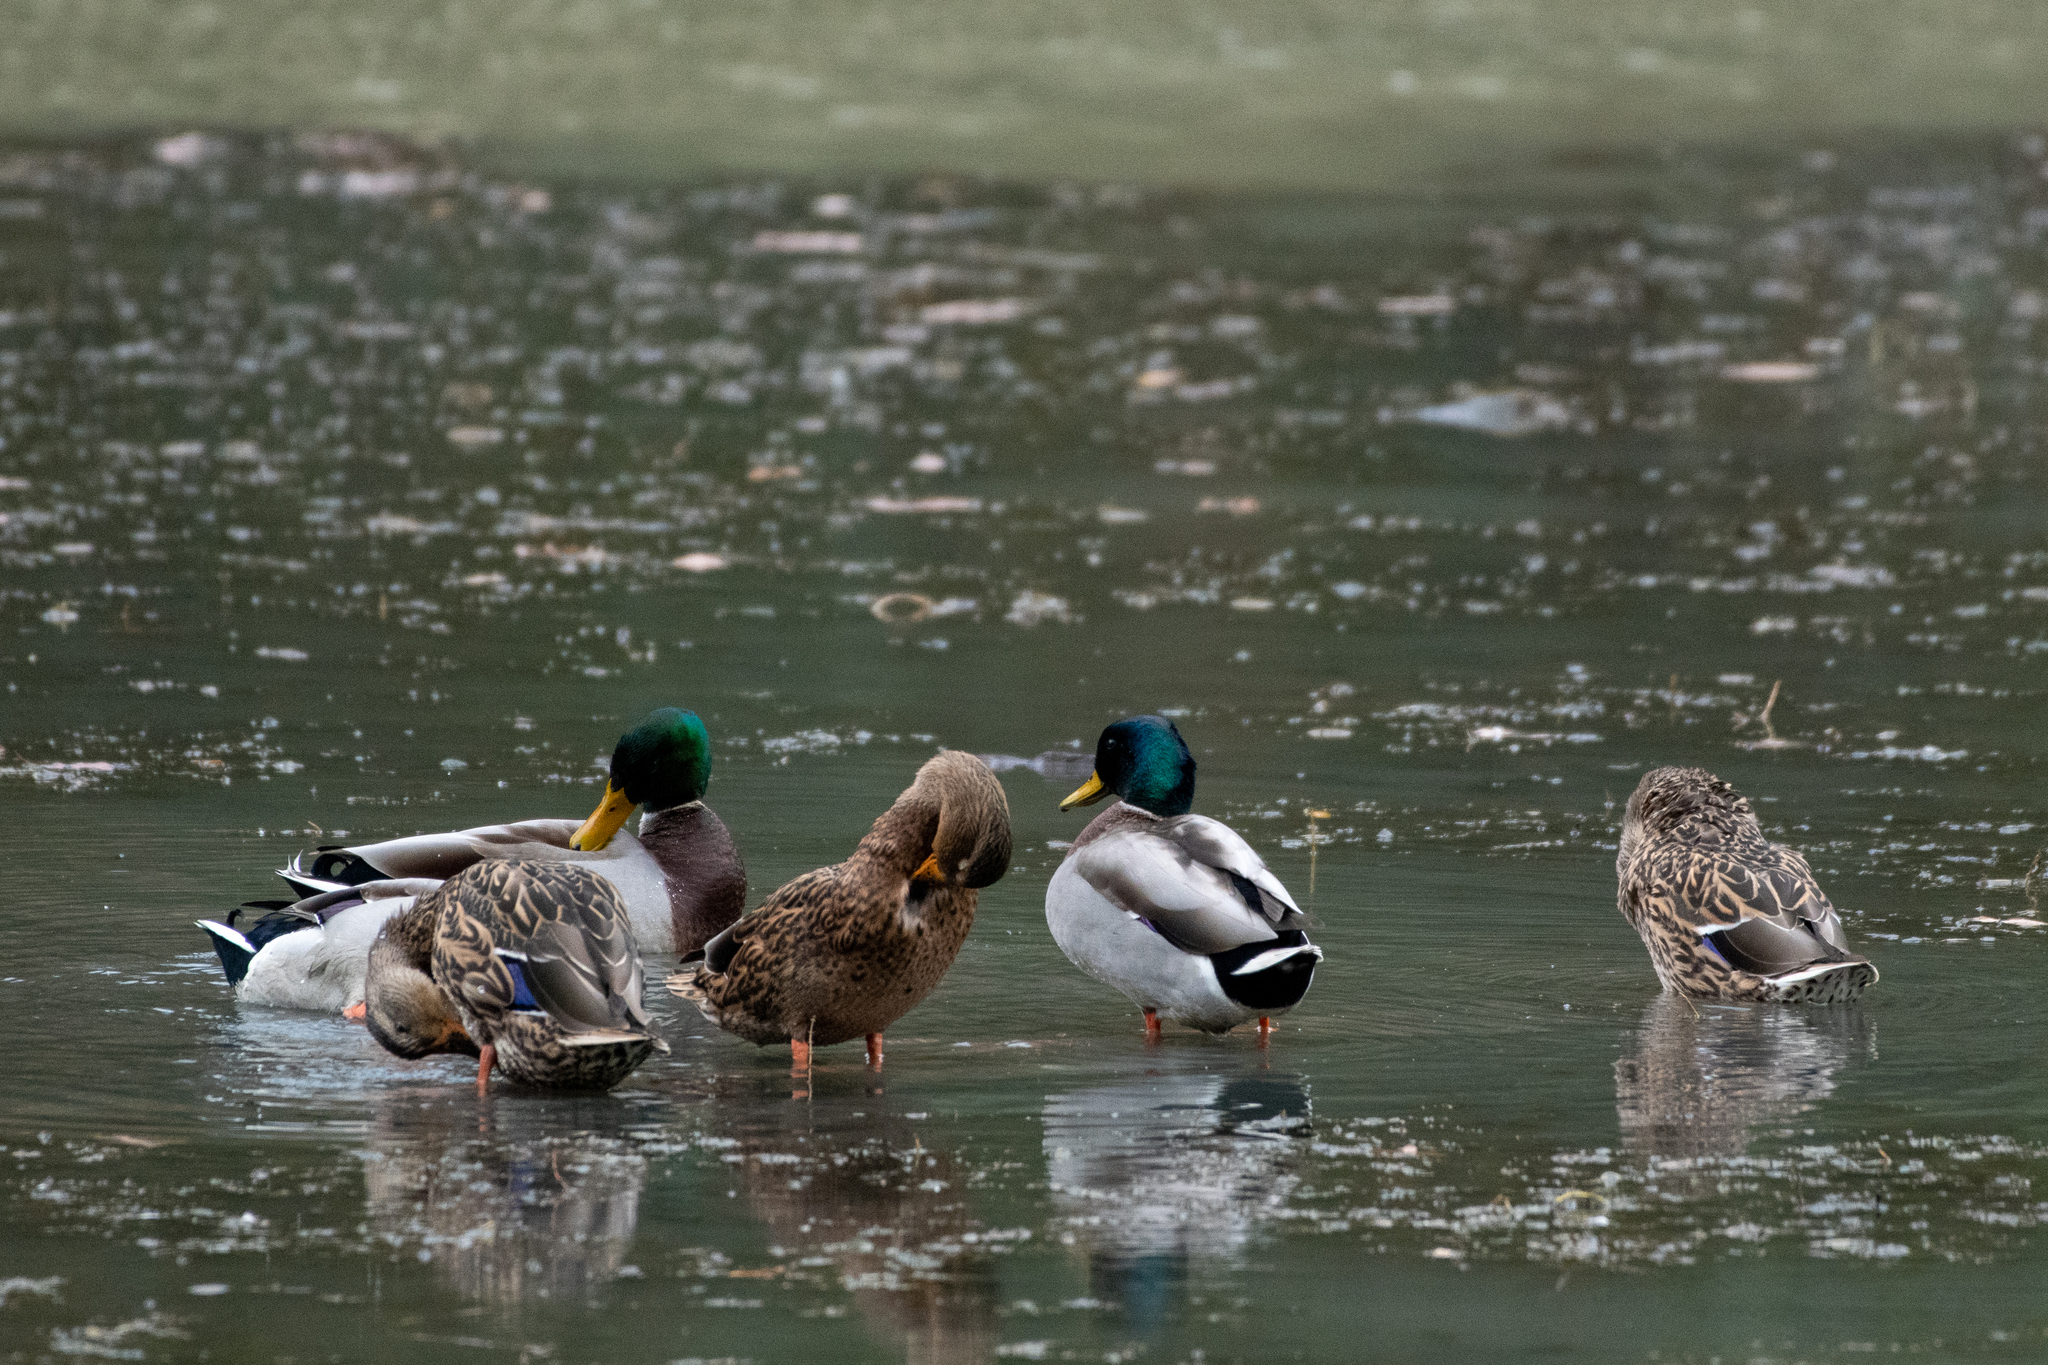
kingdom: Animalia
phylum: Chordata
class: Aves
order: Anseriformes
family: Anatidae
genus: Anas
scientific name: Anas platyrhynchos
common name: Mallard
